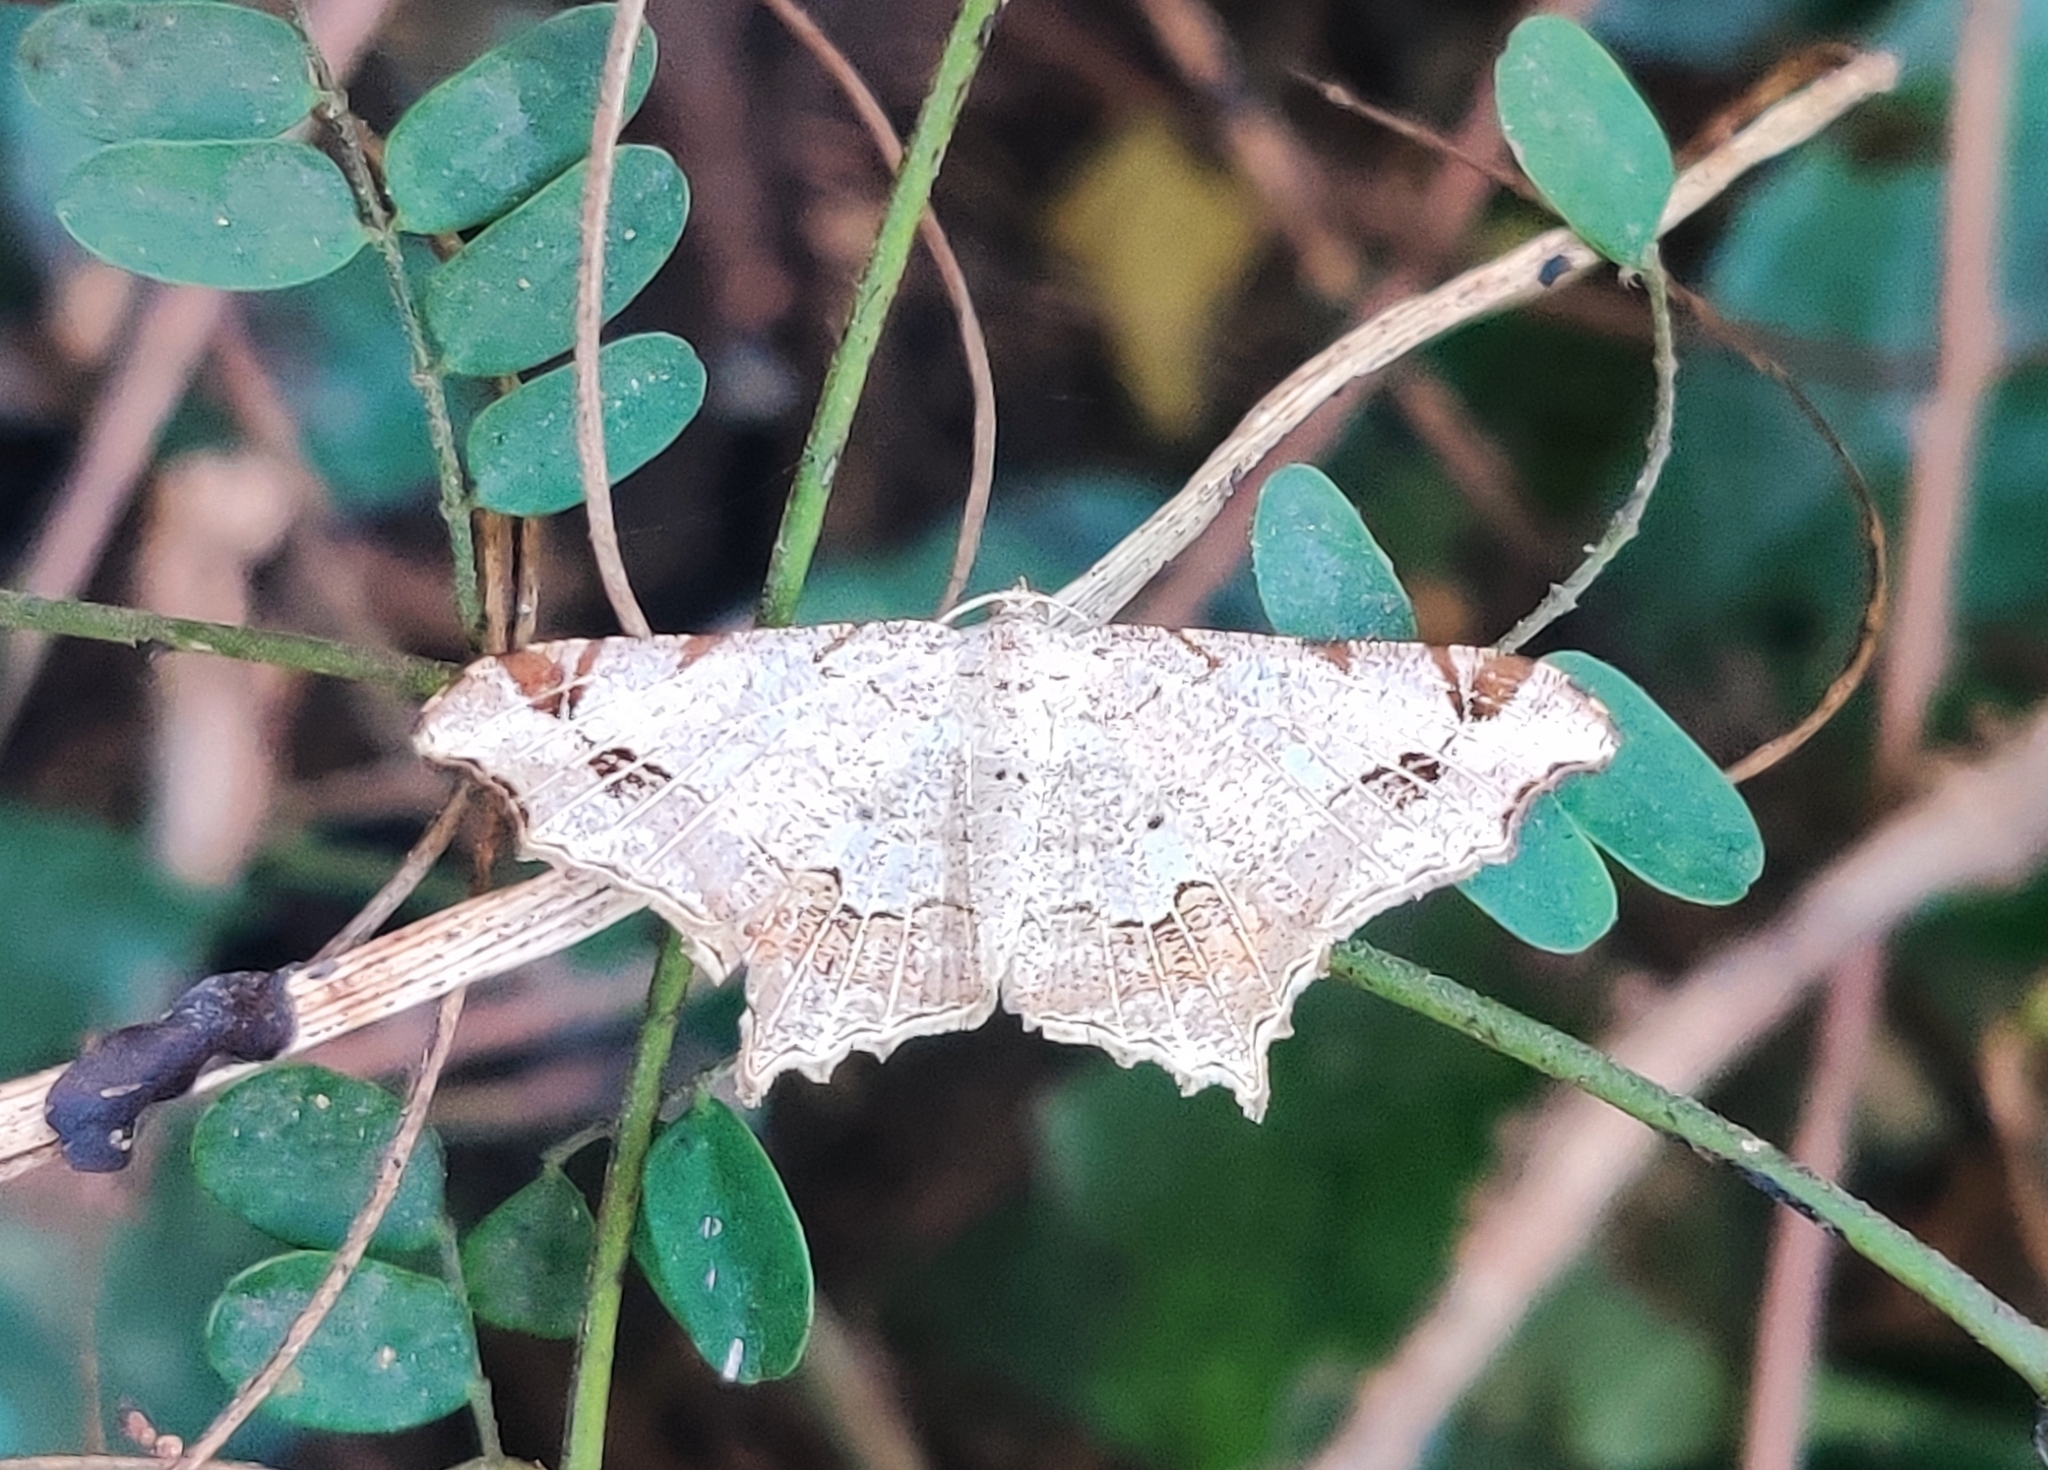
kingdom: Animalia
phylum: Arthropoda
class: Insecta
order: Lepidoptera
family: Geometridae
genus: Chiasmia
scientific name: Chiasmia emersaria
